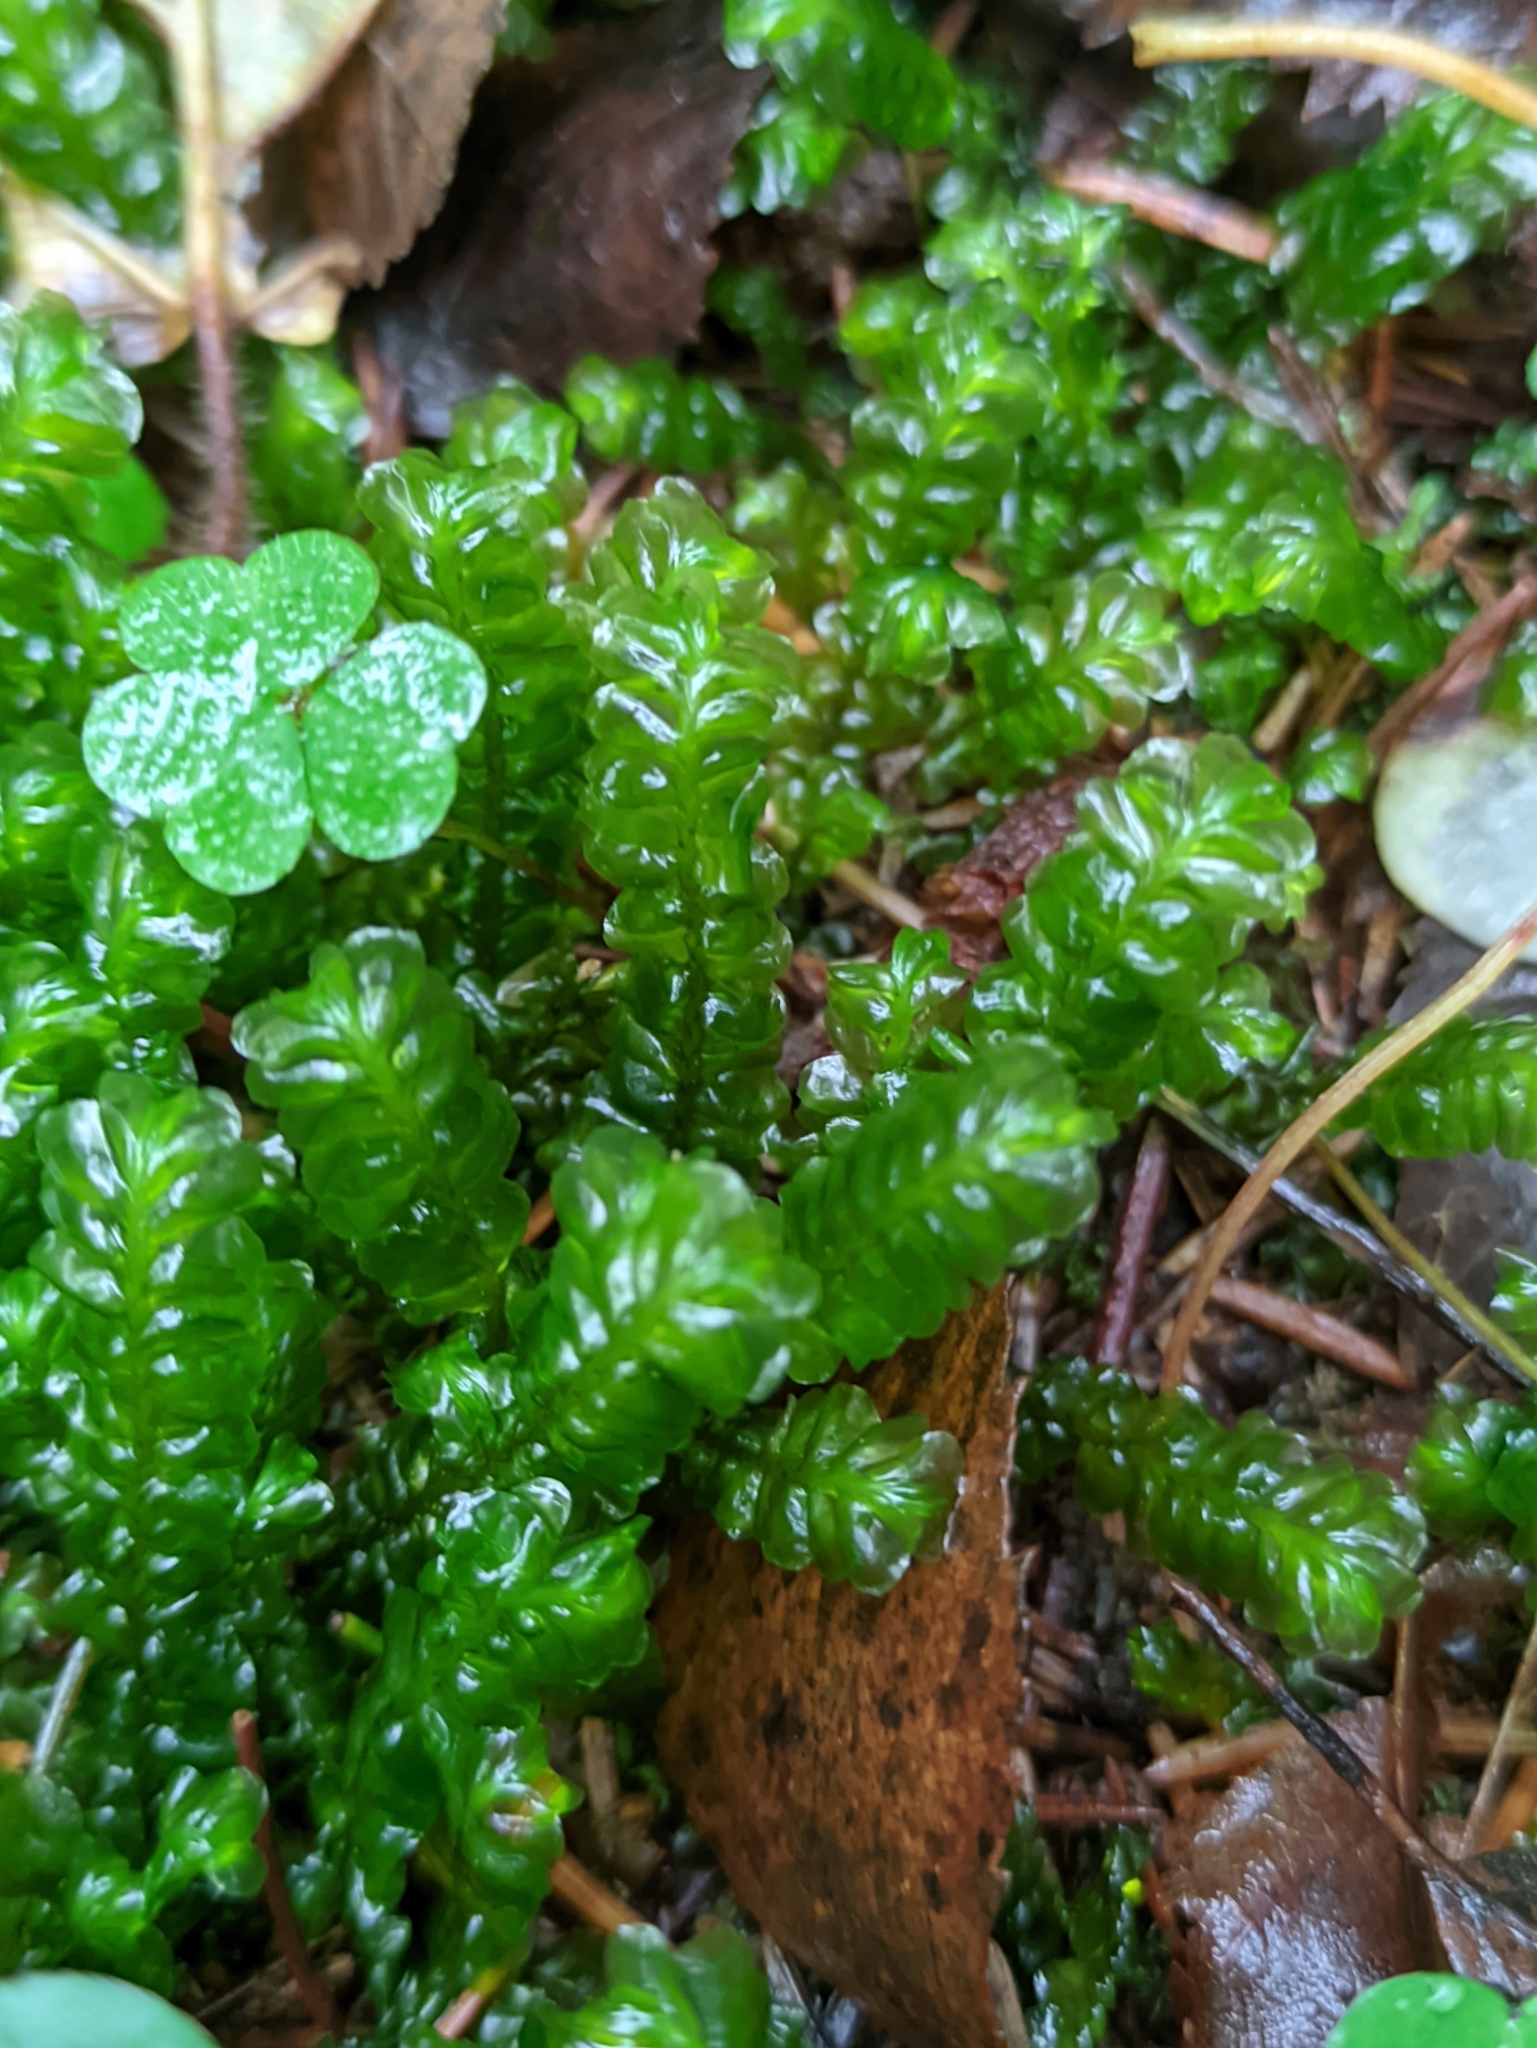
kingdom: Plantae
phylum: Marchantiophyta
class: Jungermanniopsida
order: Jungermanniales
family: Plagiochilaceae
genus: Plagiochila
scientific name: Plagiochila asplenioides
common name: Greater featherwort
